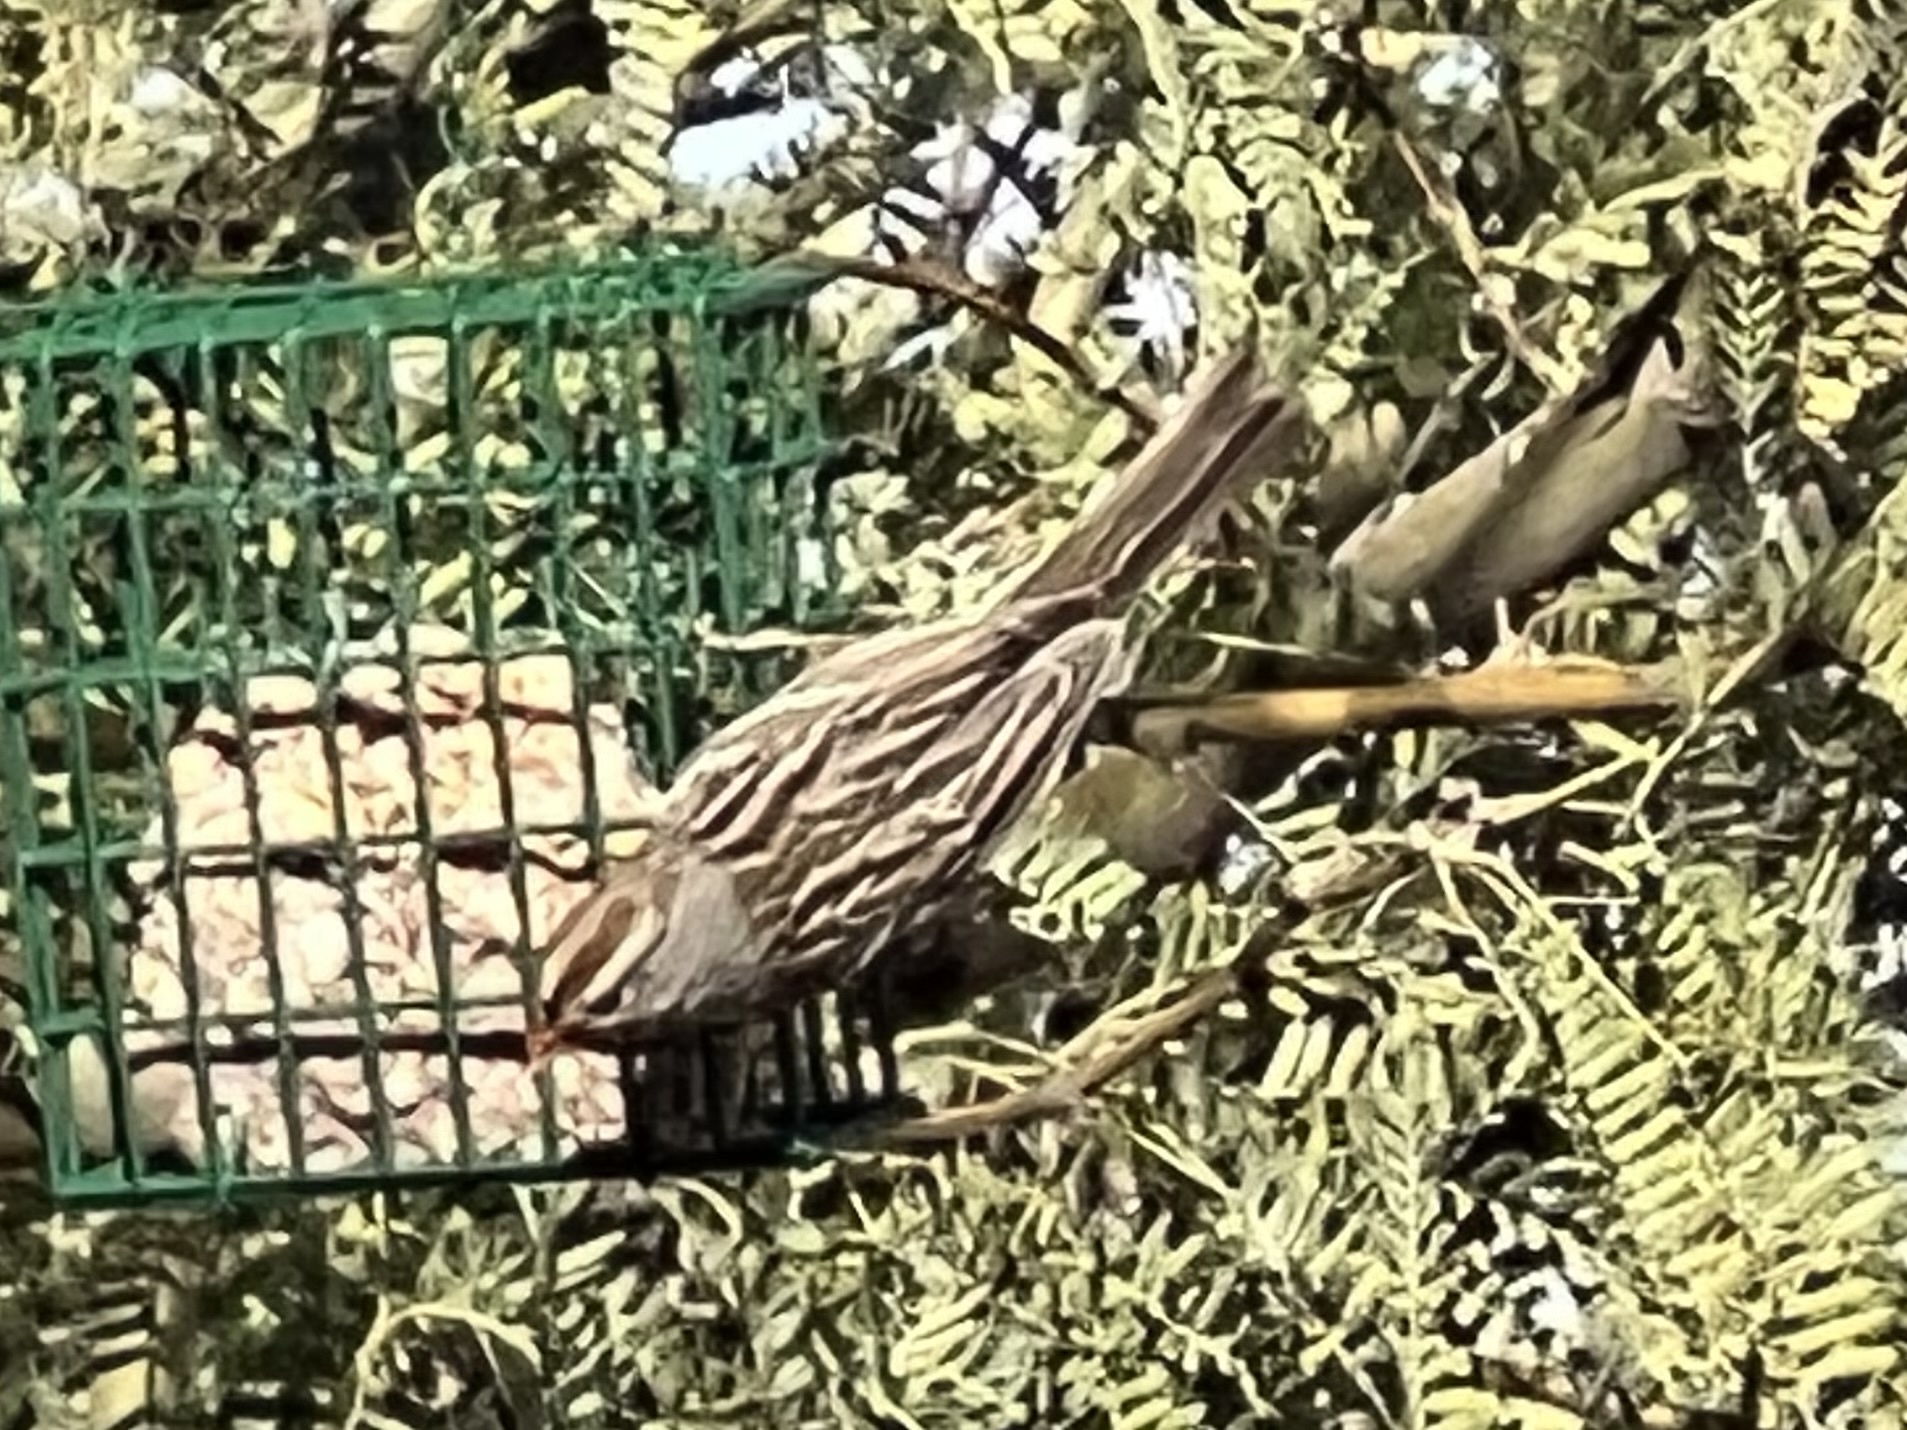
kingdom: Animalia
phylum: Chordata
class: Aves
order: Passeriformes
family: Passerellidae
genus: Zonotrichia
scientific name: Zonotrichia leucophrys
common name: White-crowned sparrow
